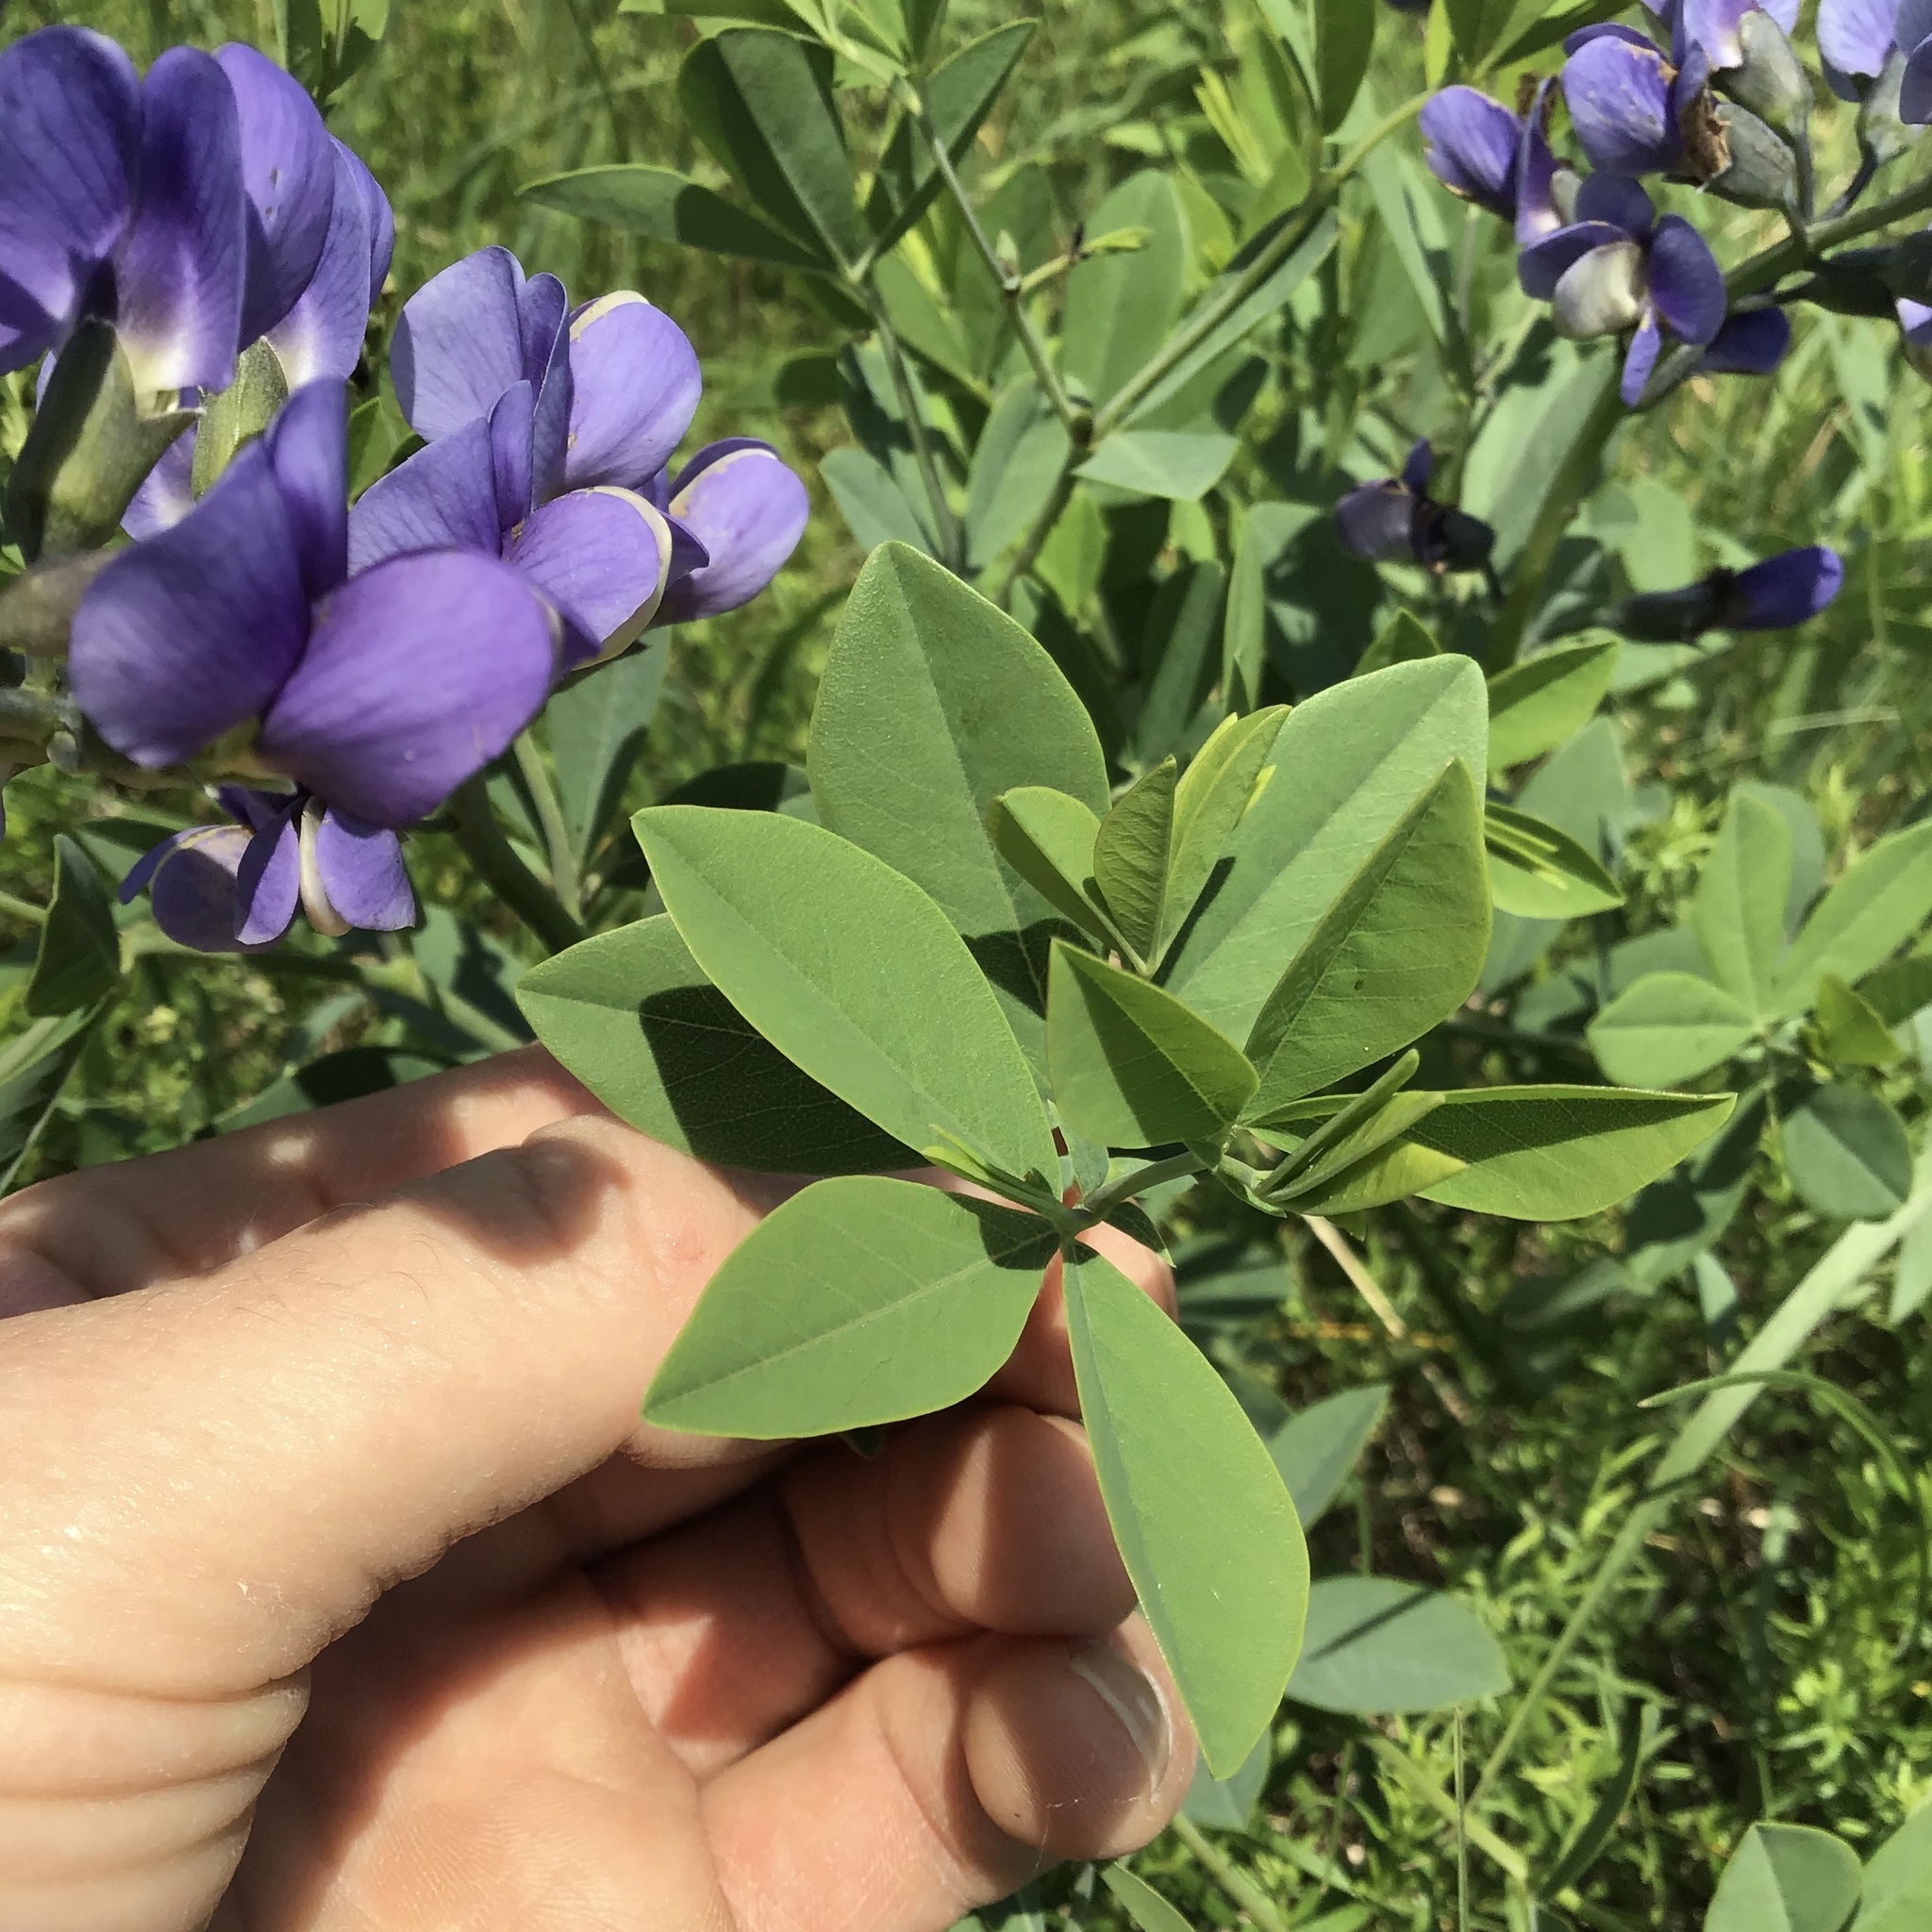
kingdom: Plantae
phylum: Tracheophyta
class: Magnoliopsida
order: Fabales
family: Fabaceae
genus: Baptisia
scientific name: Baptisia australis
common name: Blue false indigo
